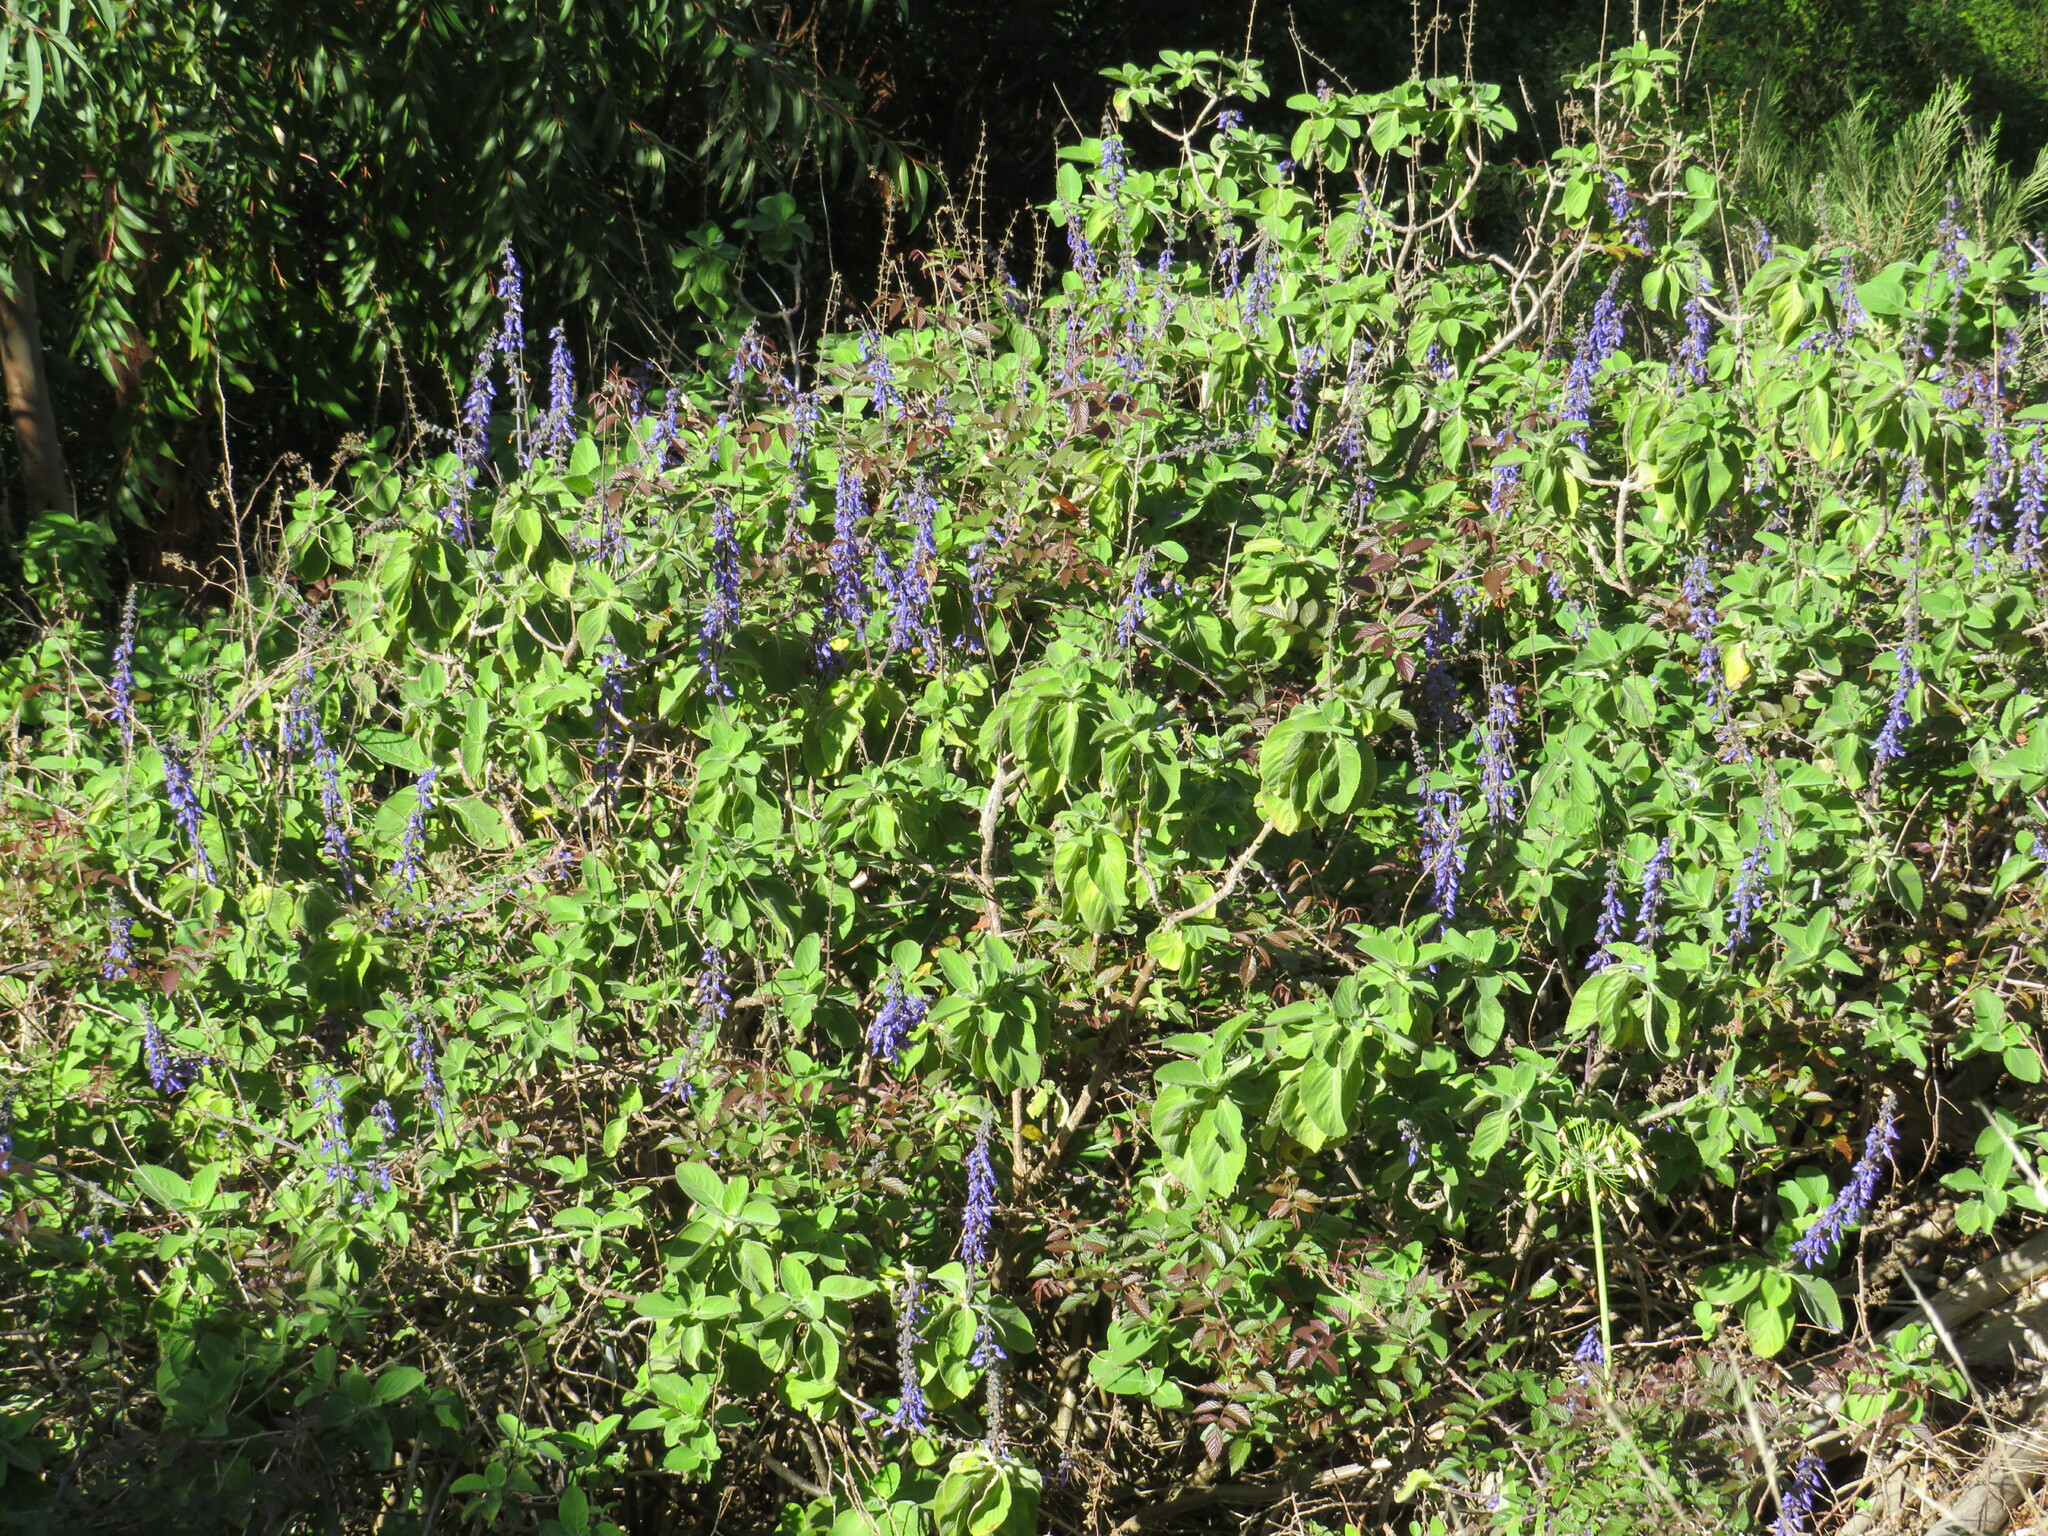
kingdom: Plantae
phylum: Tracheophyta
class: Magnoliopsida
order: Lamiales
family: Lamiaceae
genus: Coleus
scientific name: Coleus barbatus
